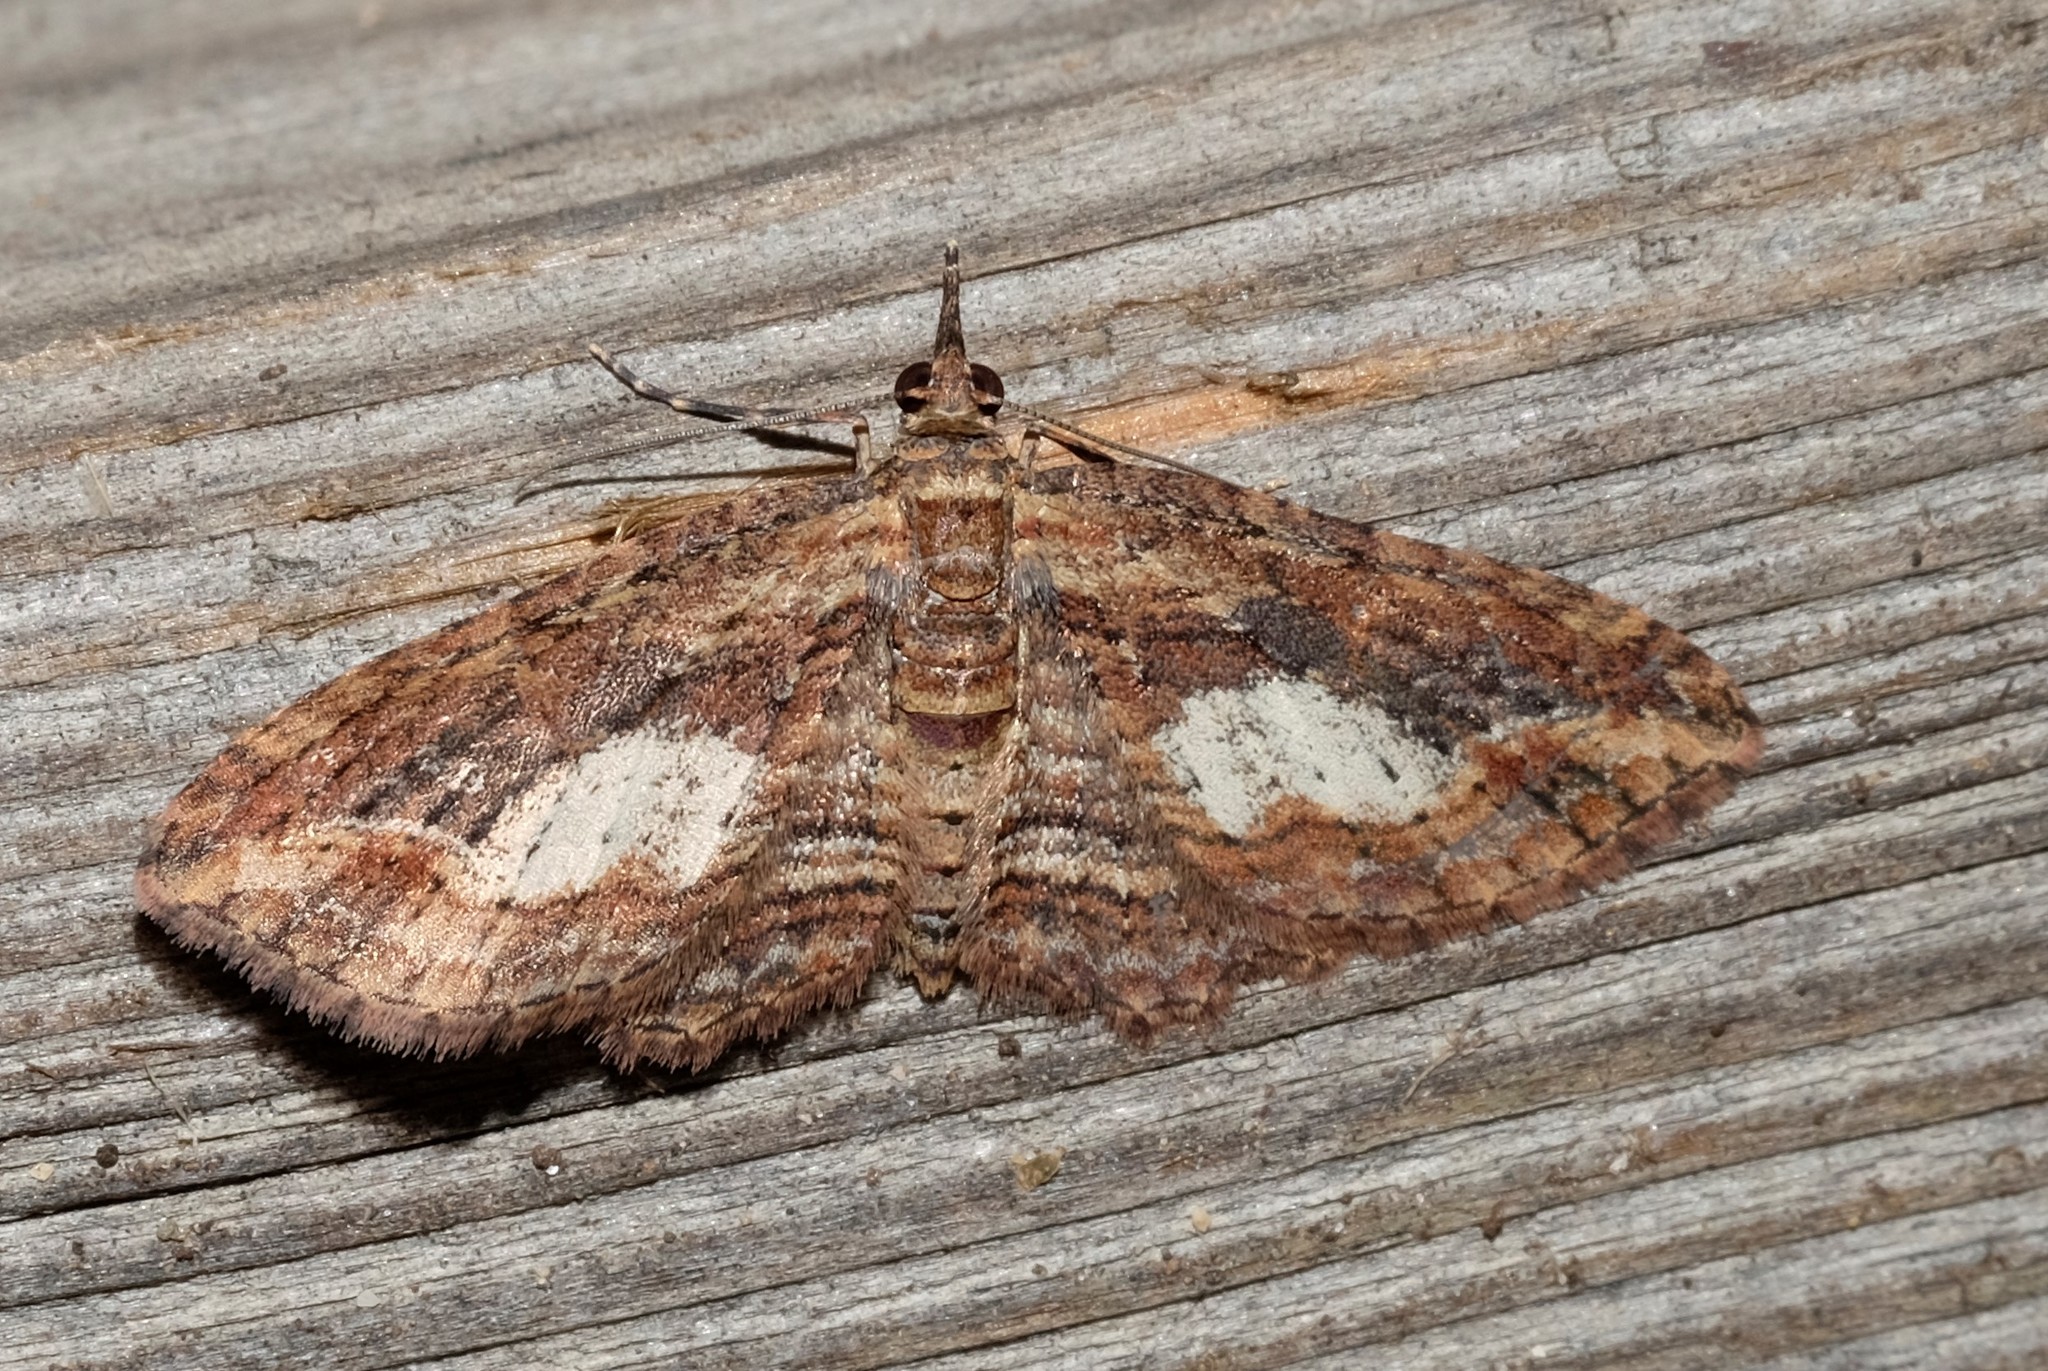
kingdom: Animalia
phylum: Arthropoda
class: Insecta
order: Lepidoptera
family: Geometridae
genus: Chloroclystis
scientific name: Chloroclystis filata
